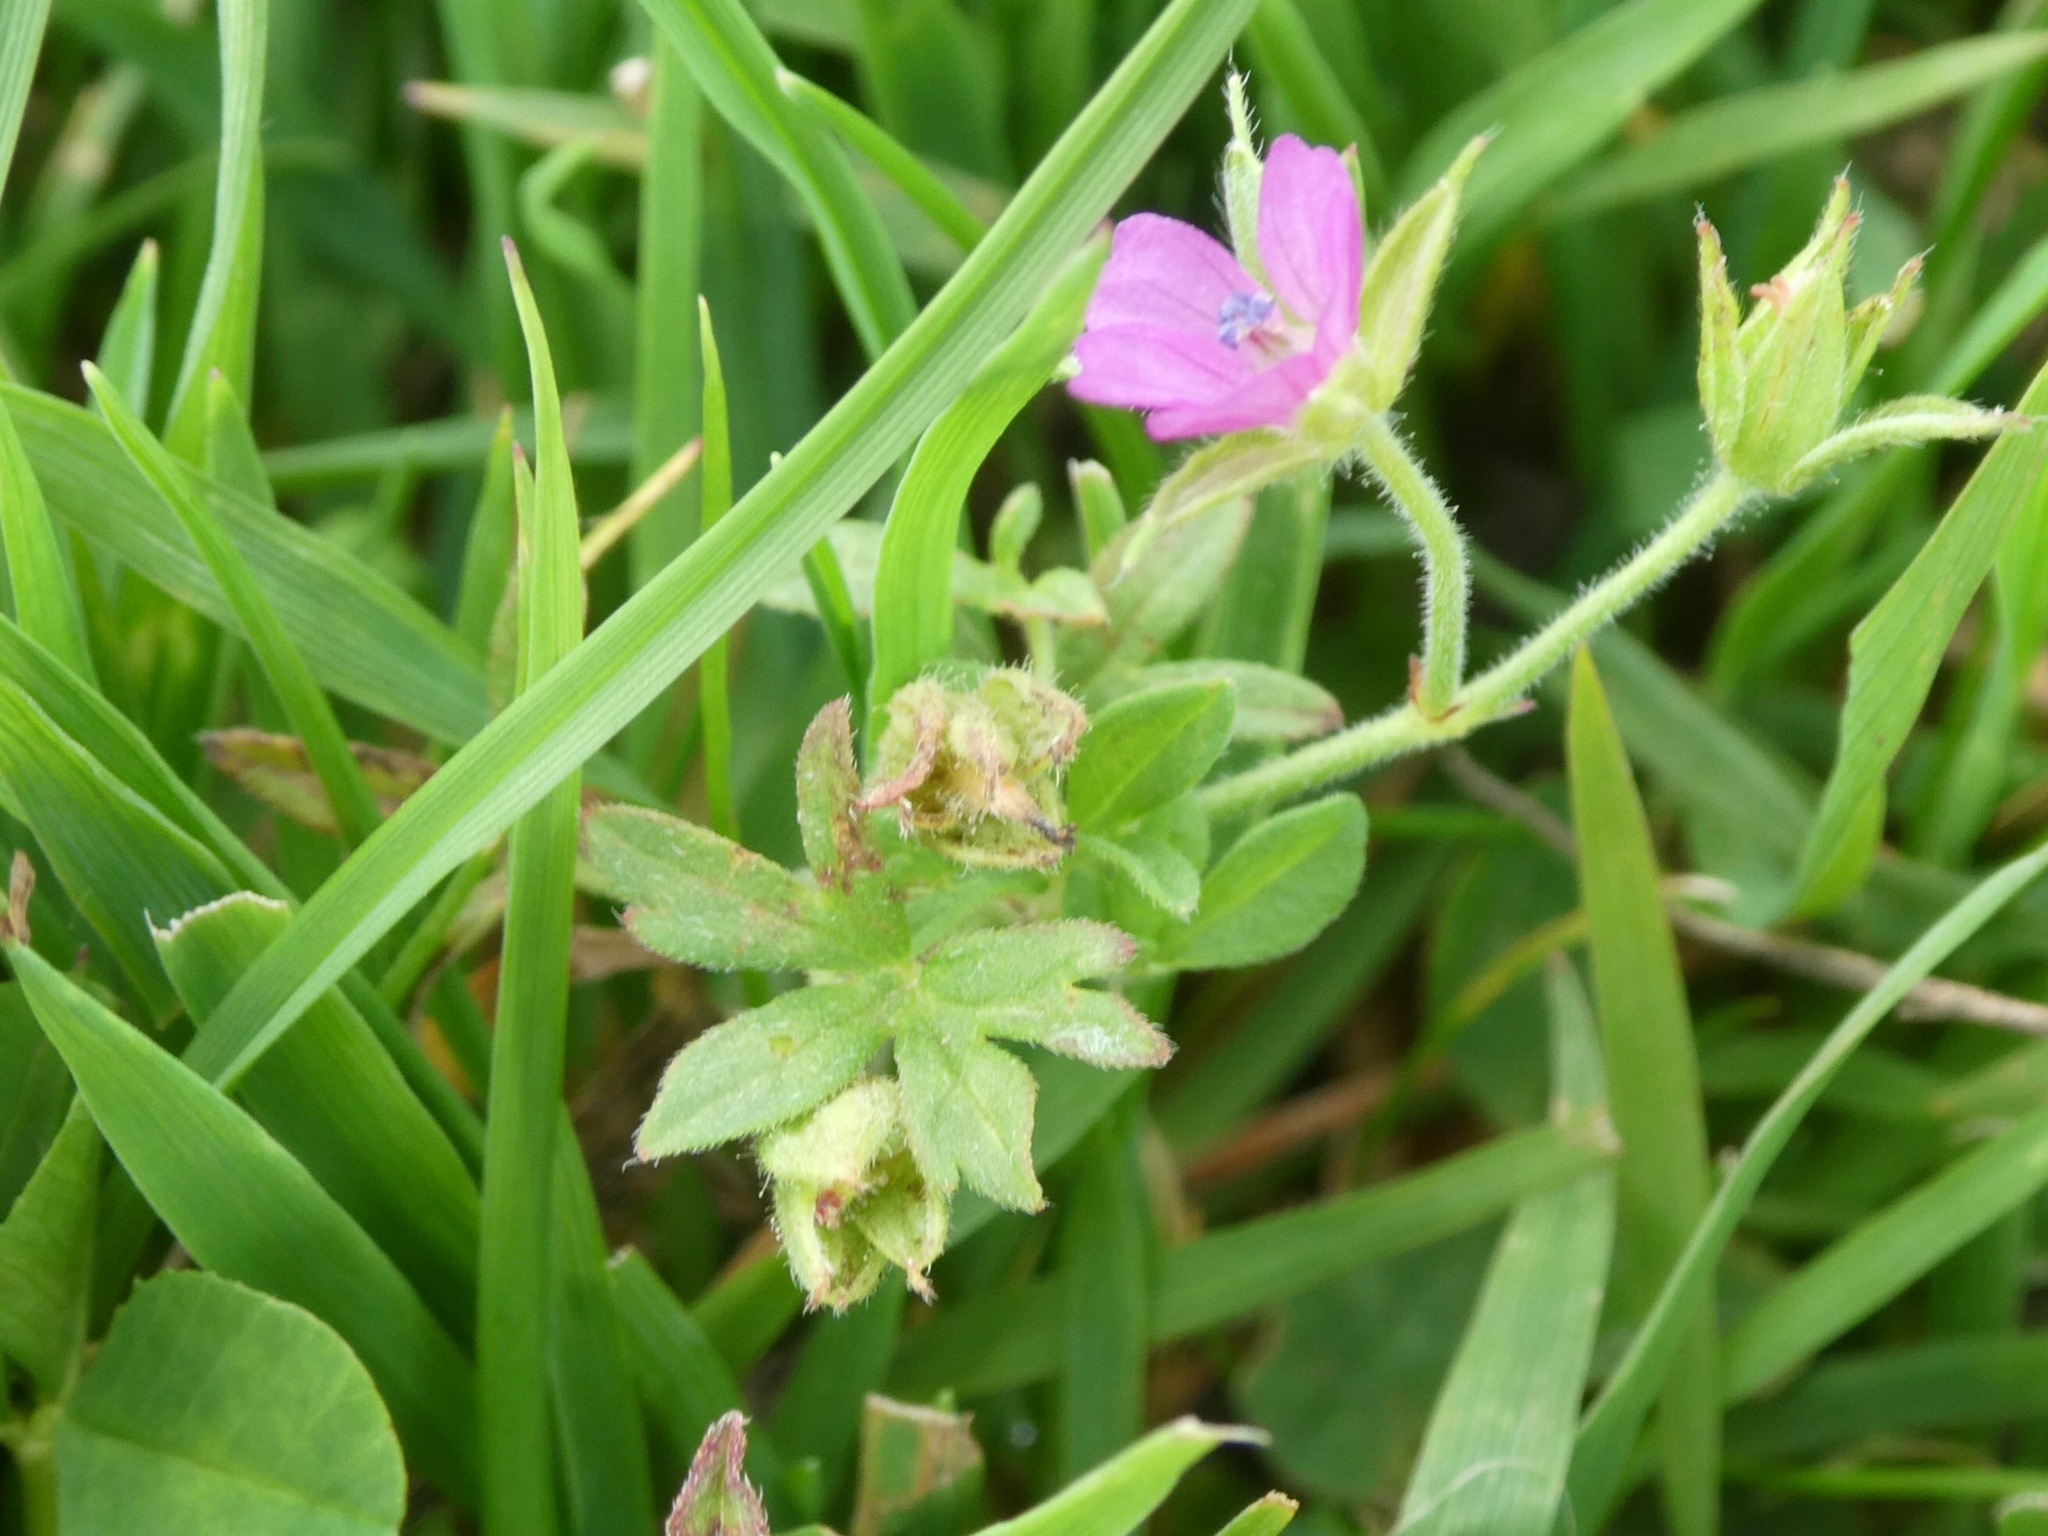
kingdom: Plantae
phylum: Tracheophyta
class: Magnoliopsida
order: Geraniales
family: Geraniaceae
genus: Geranium
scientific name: Geranium dissectum
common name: Cut-leaved crane's-bill
